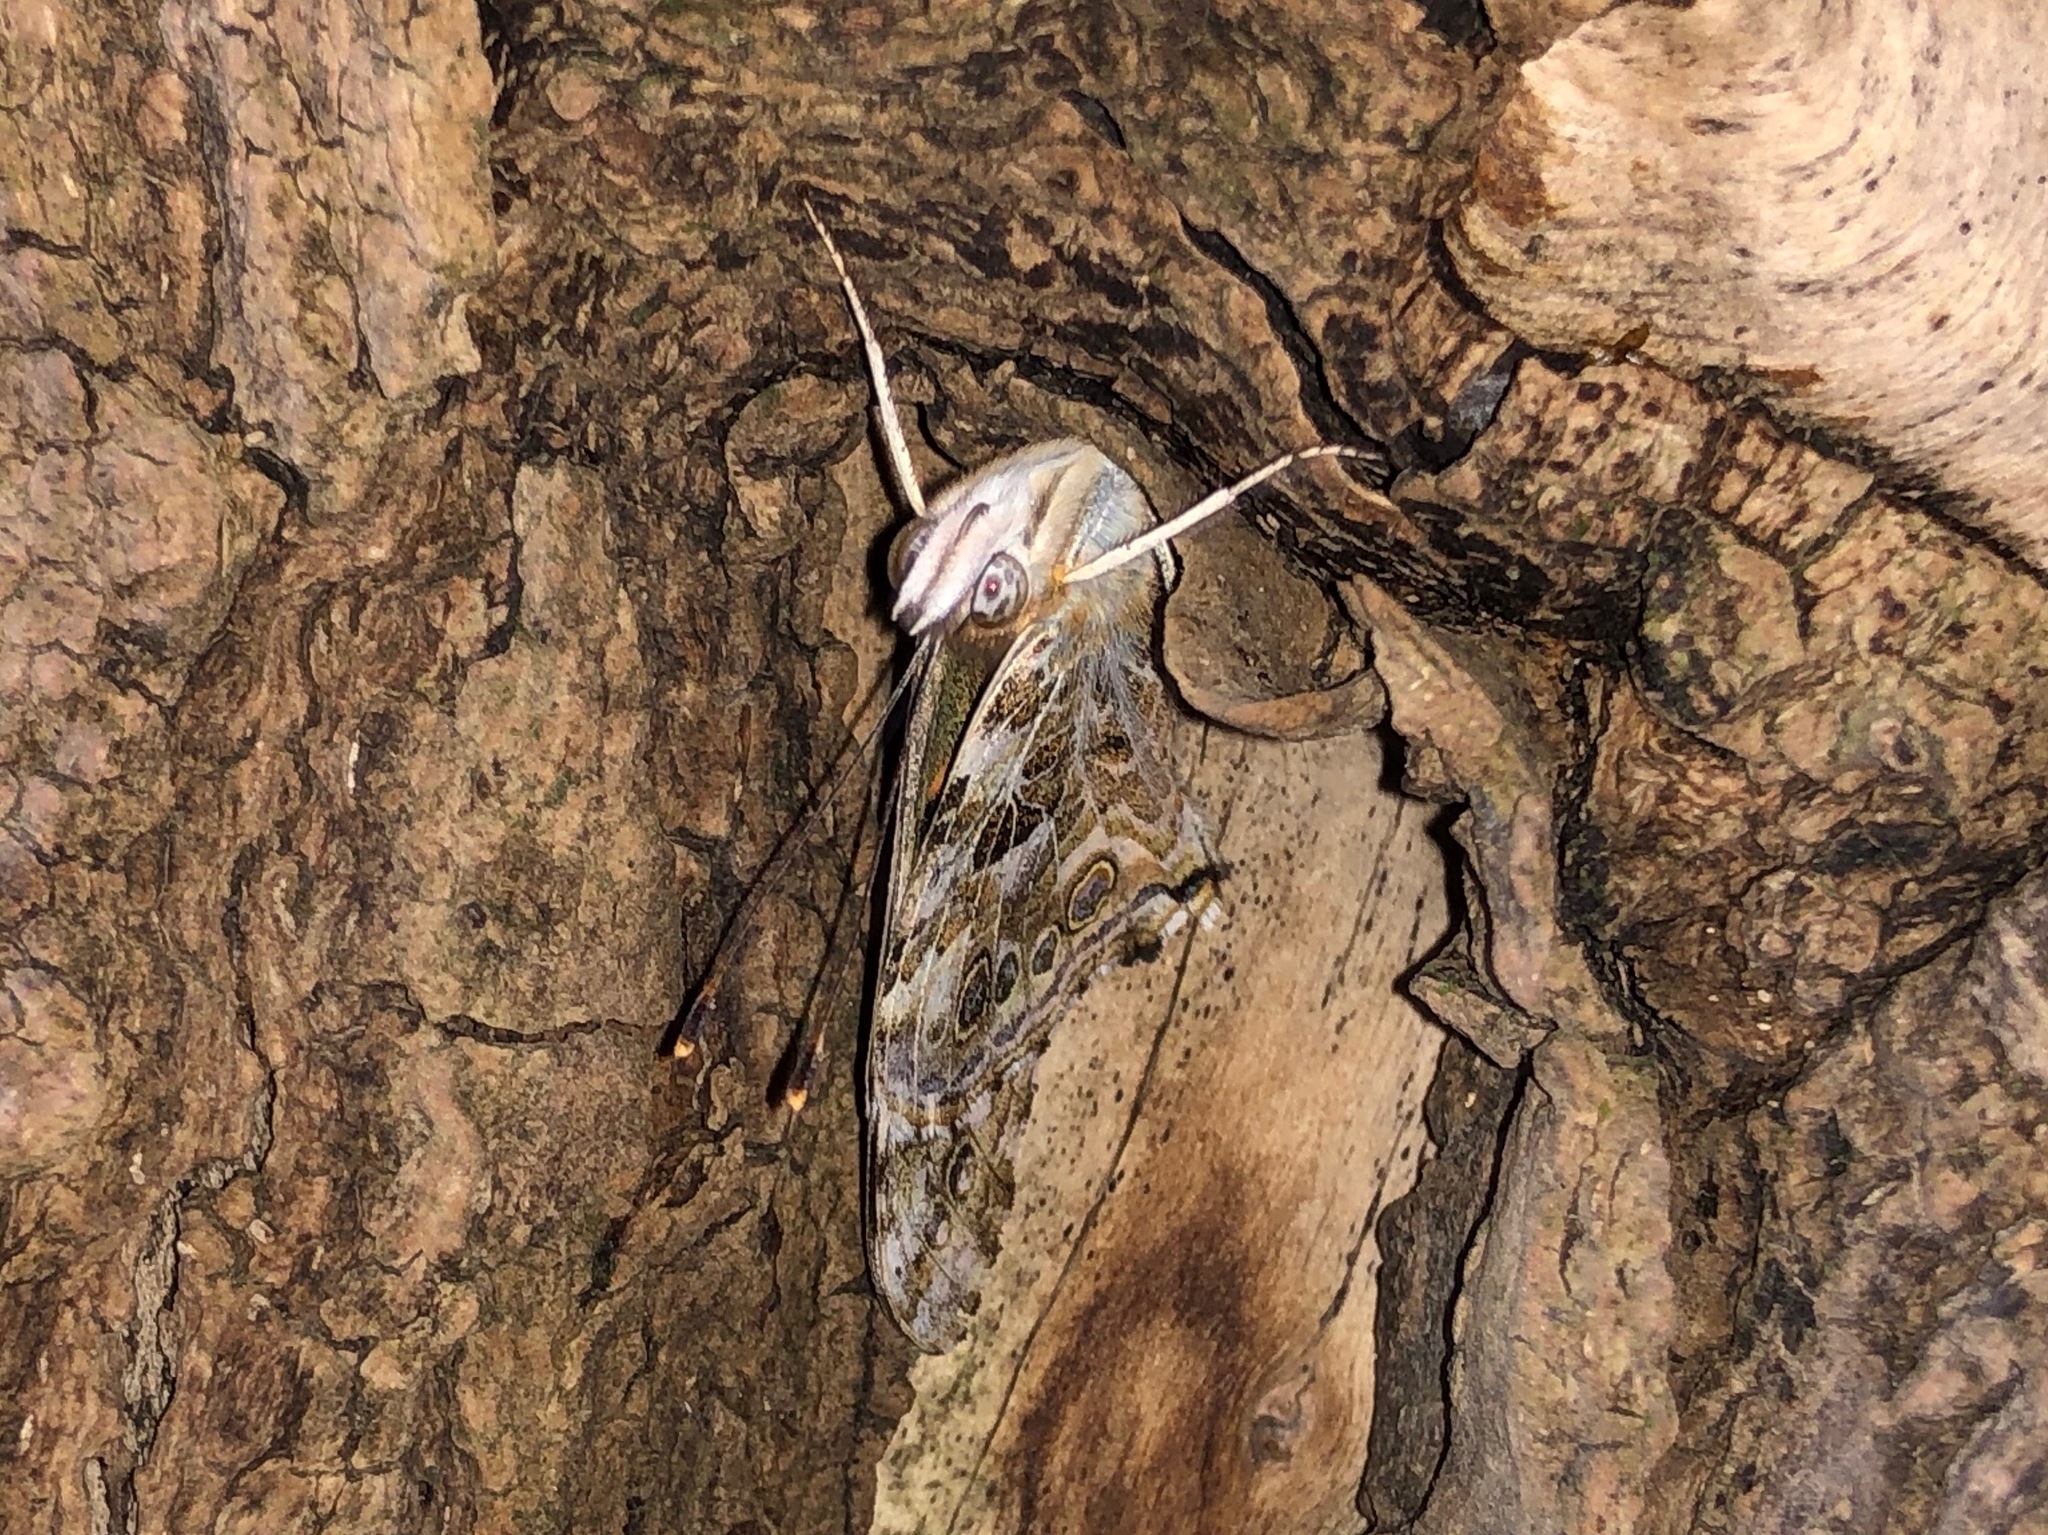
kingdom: Animalia
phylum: Arthropoda
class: Insecta
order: Lepidoptera
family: Nymphalidae
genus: Vanessa
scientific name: Vanessa cardui
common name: Painted lady
